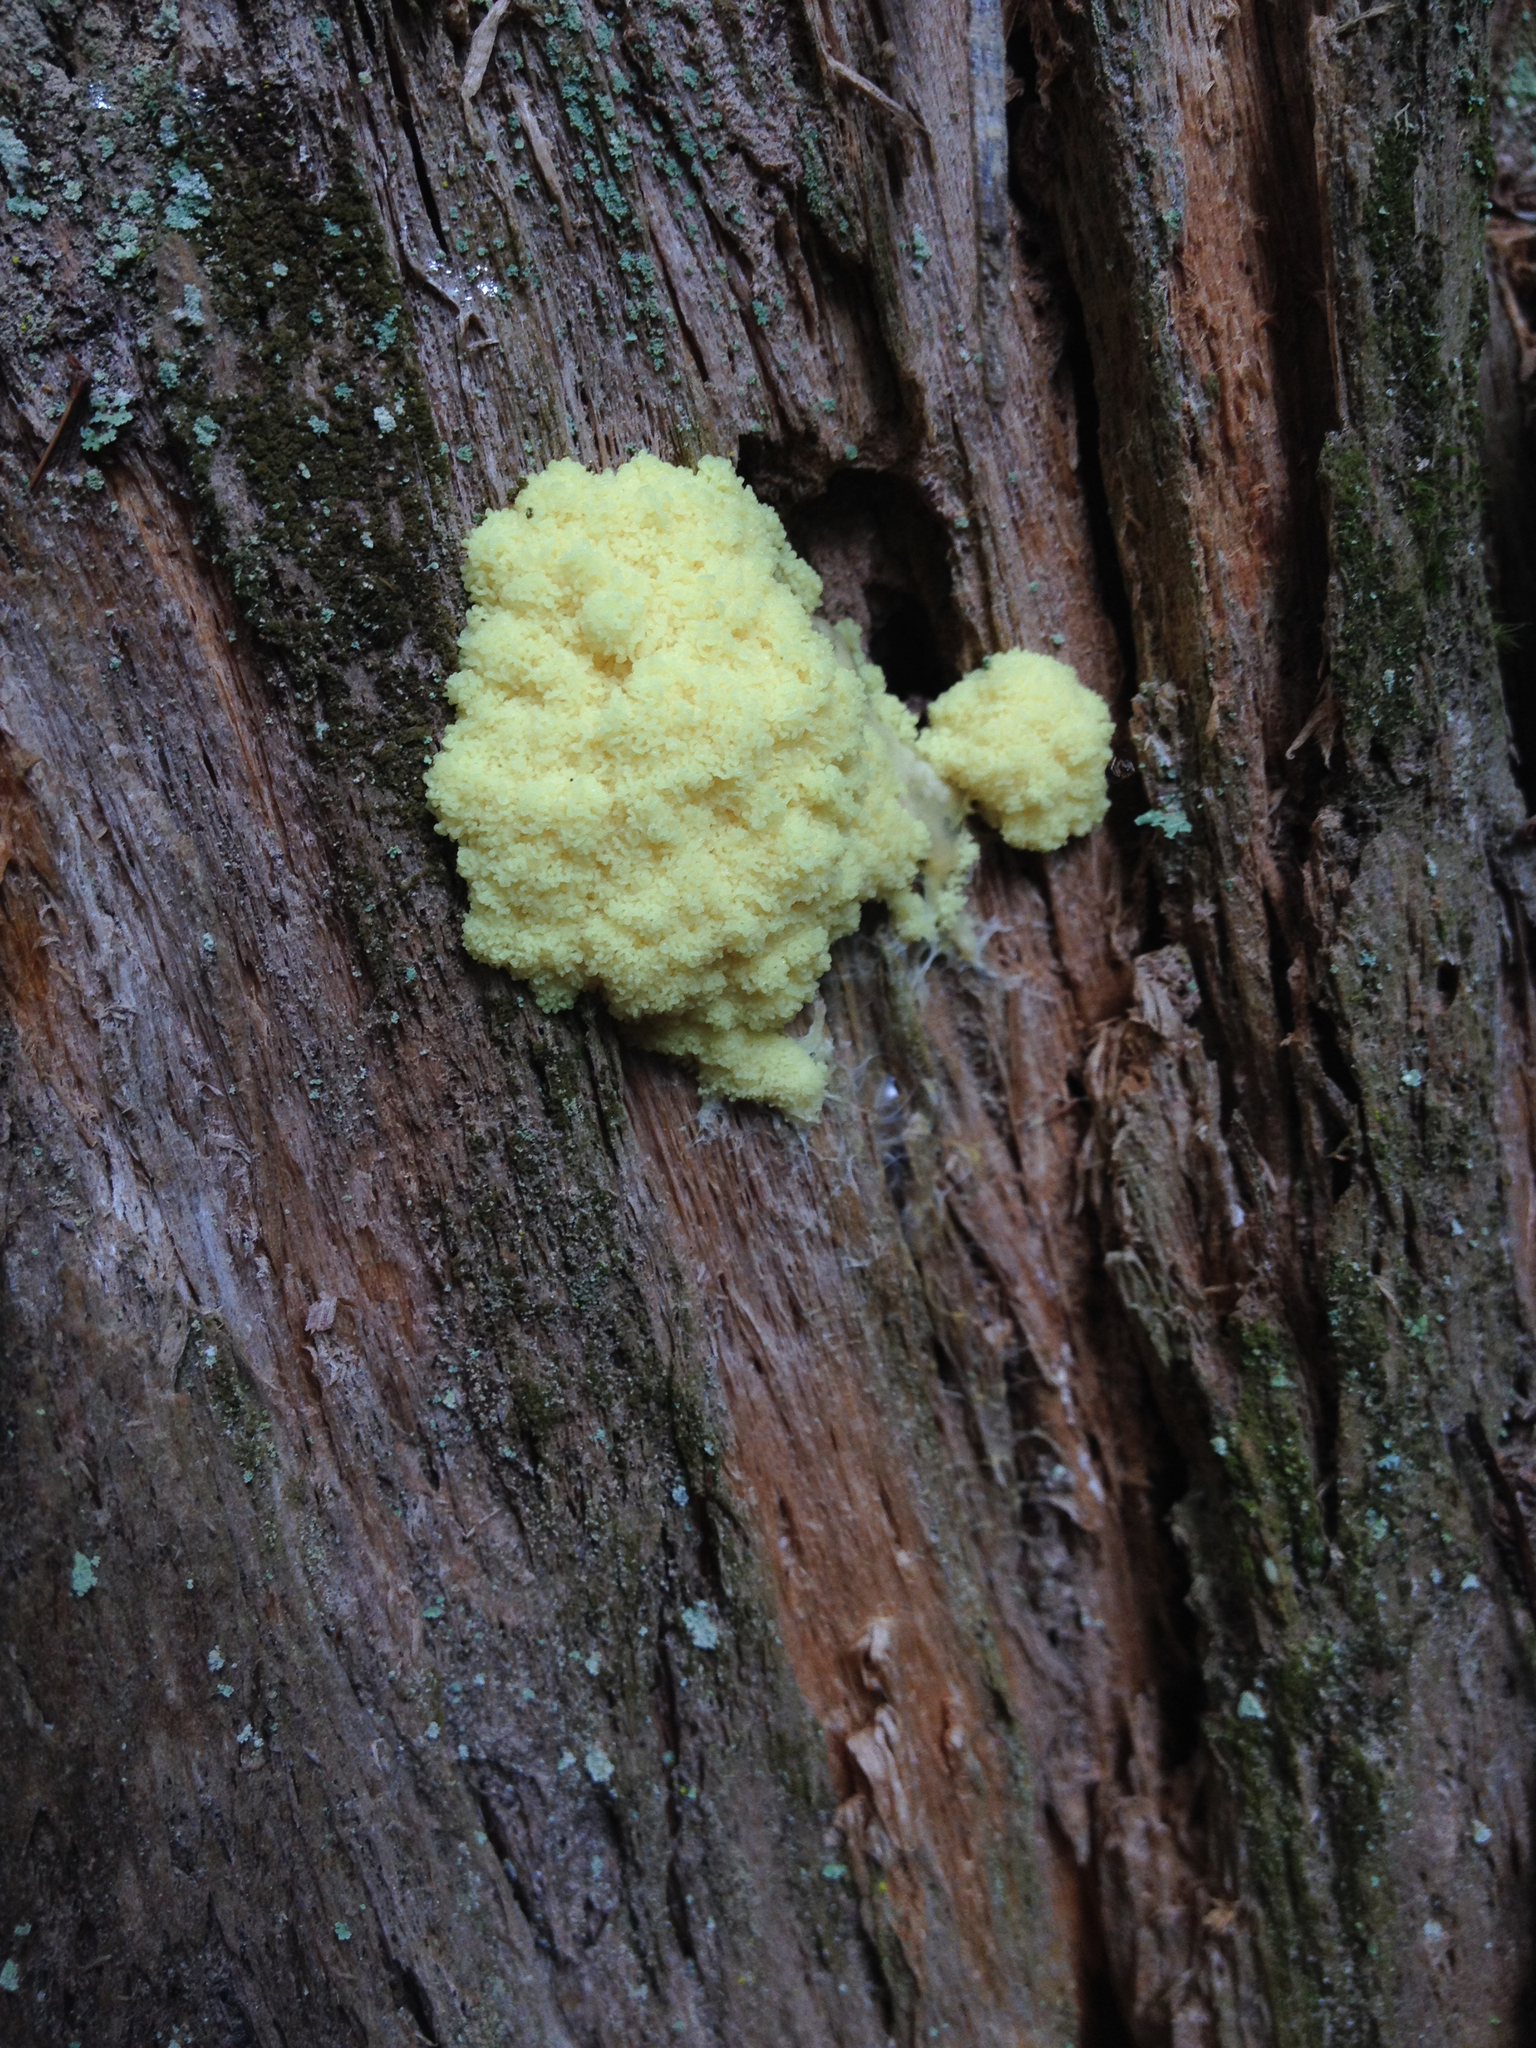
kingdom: Protozoa
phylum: Mycetozoa
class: Myxomycetes
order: Physarales
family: Physaraceae
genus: Fuligo
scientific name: Fuligo septica
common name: Dog vomit slime mold
